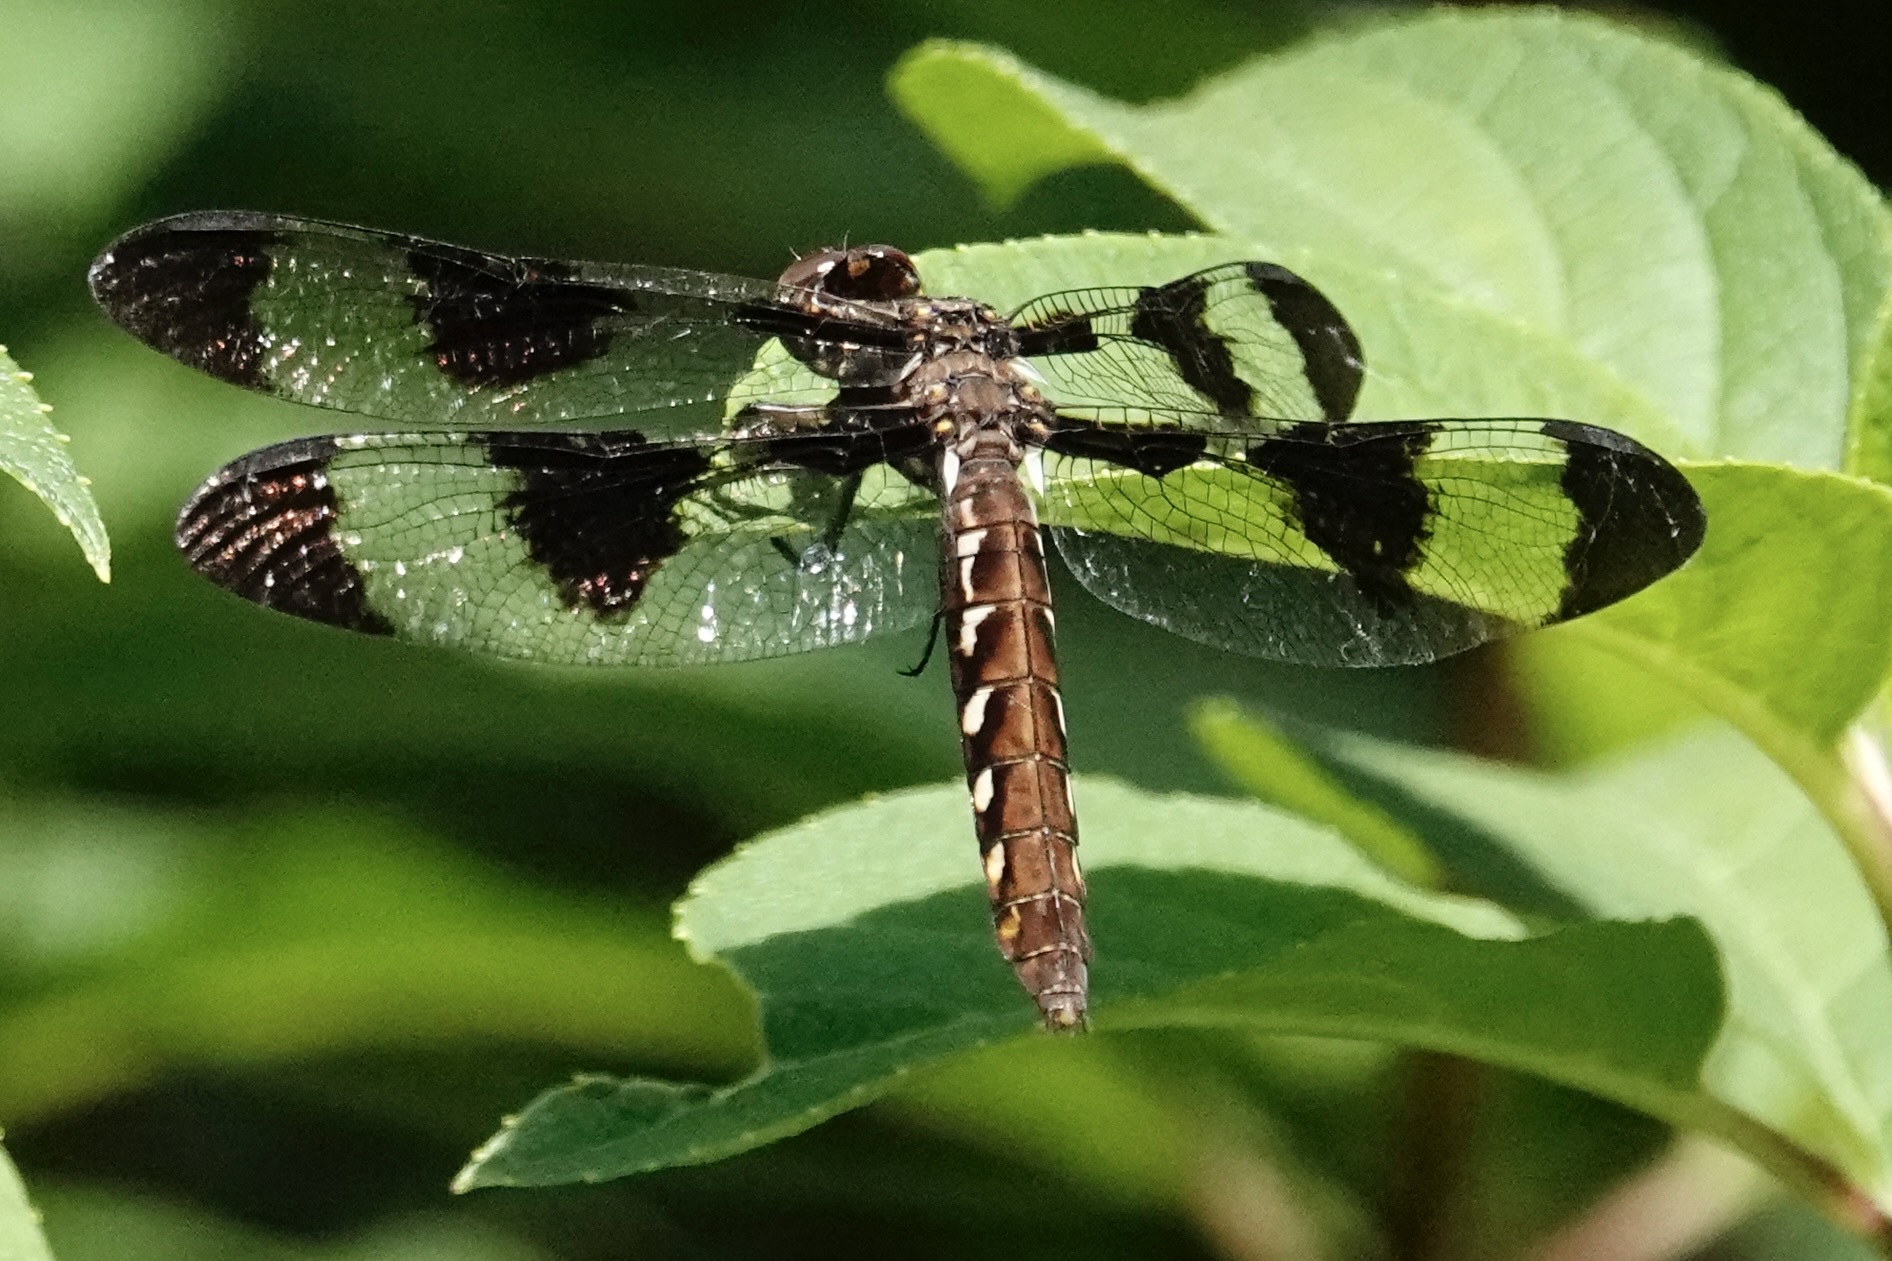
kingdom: Animalia
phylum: Arthropoda
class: Insecta
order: Odonata
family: Libellulidae
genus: Plathemis
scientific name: Plathemis lydia
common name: Common whitetail
